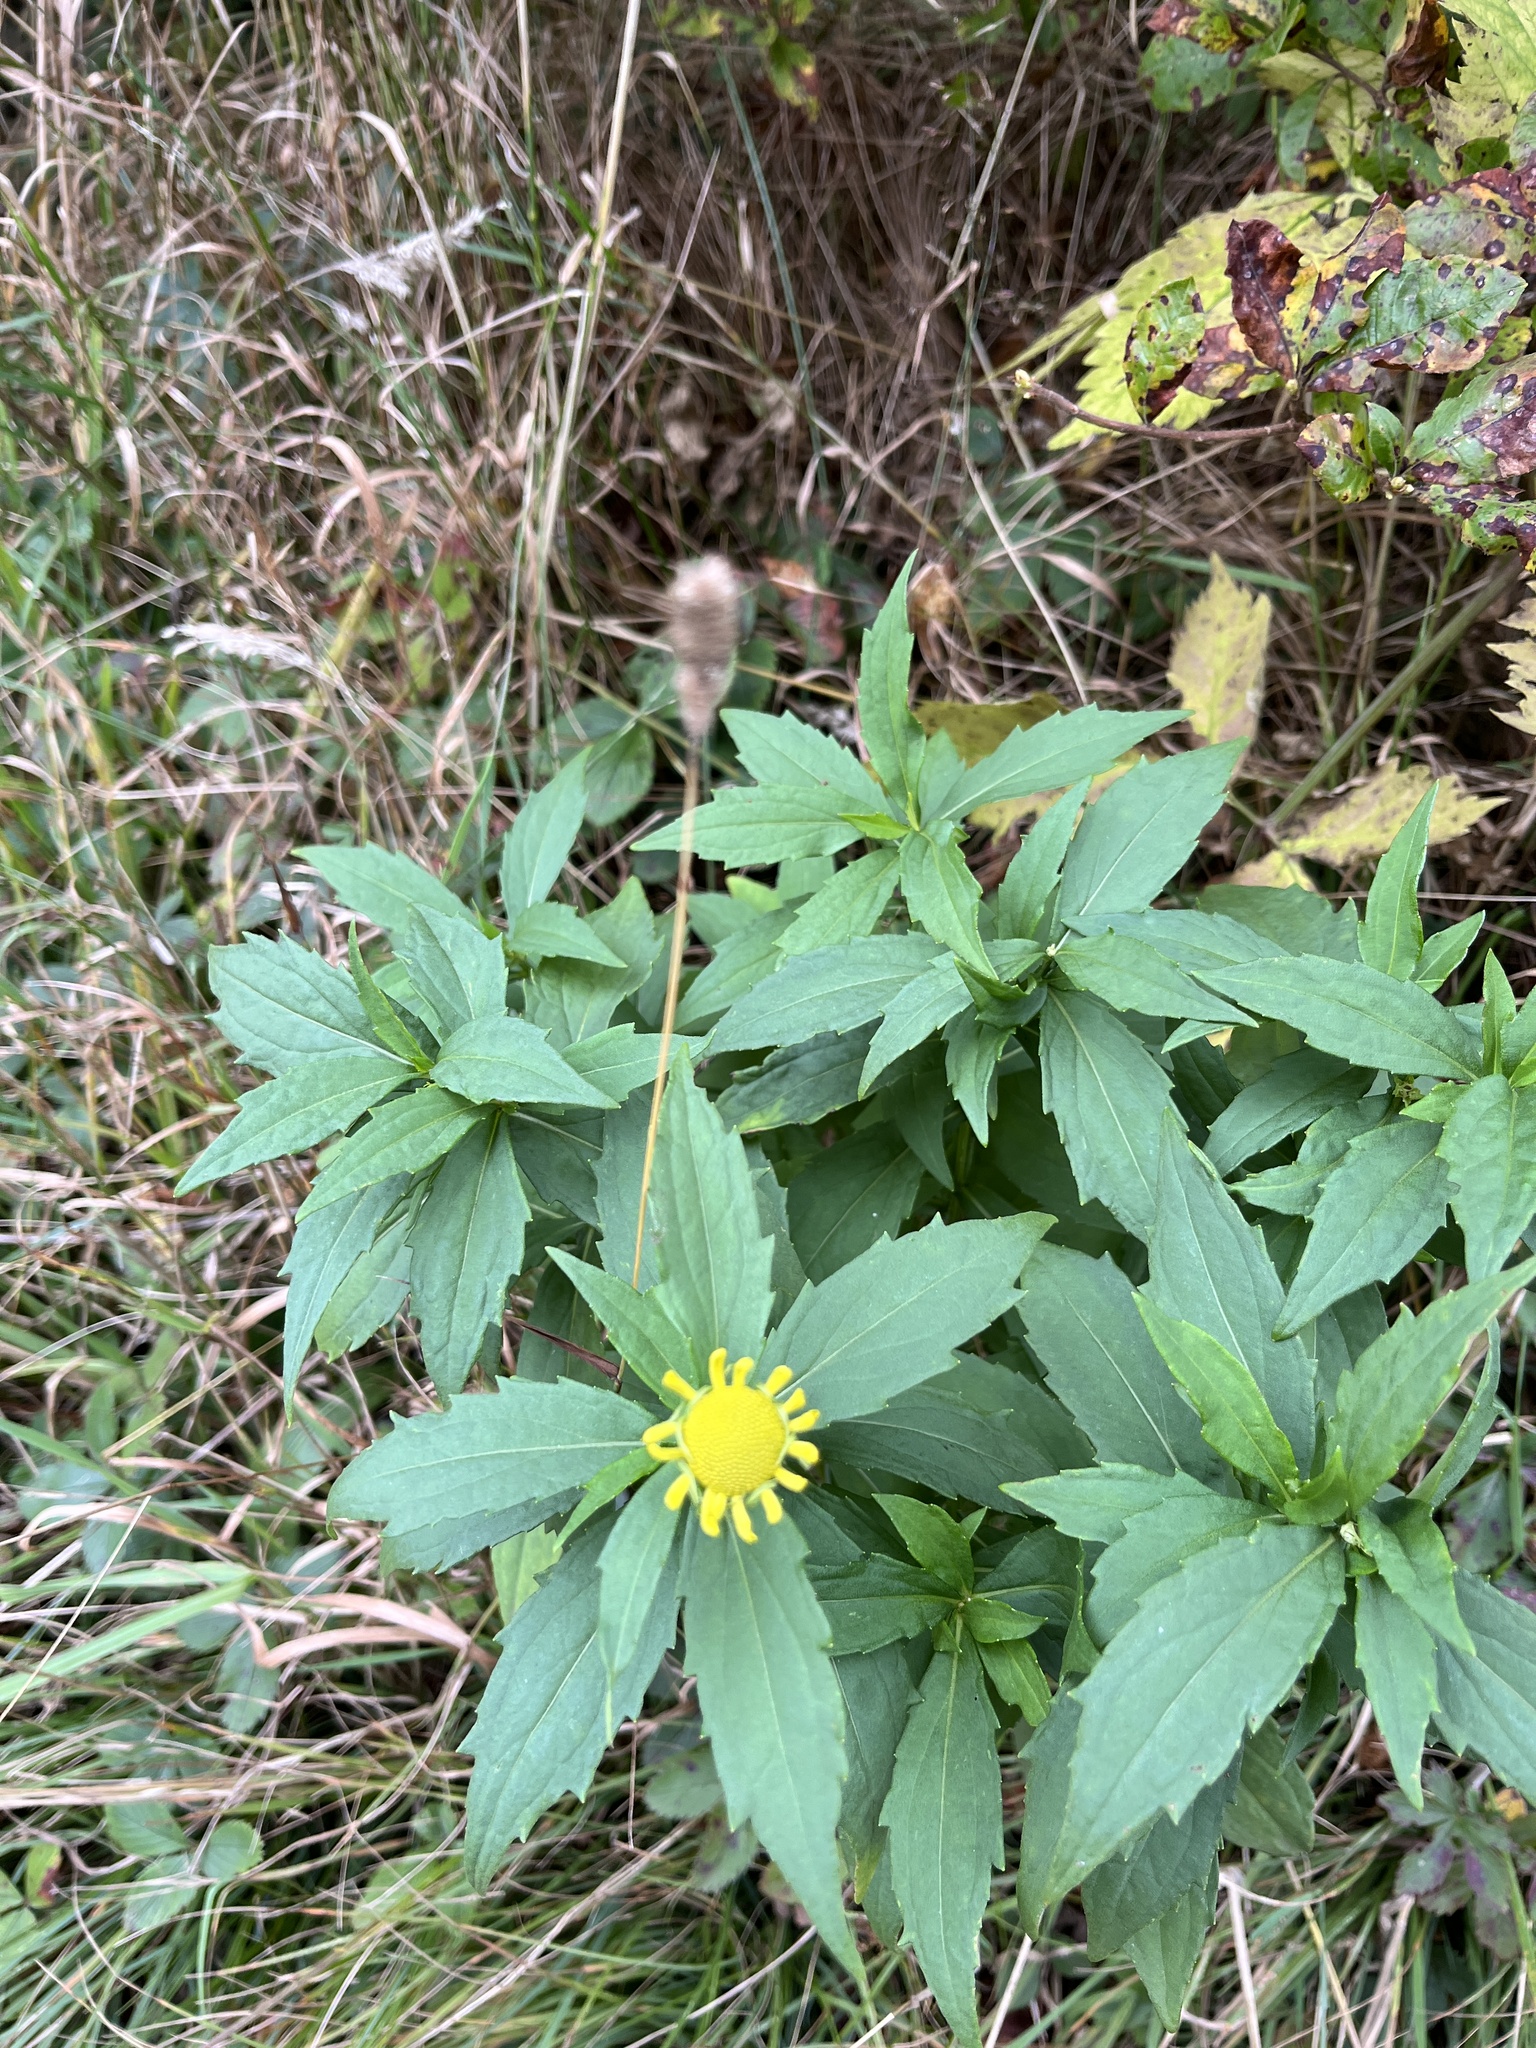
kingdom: Plantae
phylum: Tracheophyta
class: Magnoliopsida
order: Asterales
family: Asteraceae
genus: Helenium
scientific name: Helenium autumnale
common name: Sneezeweed
